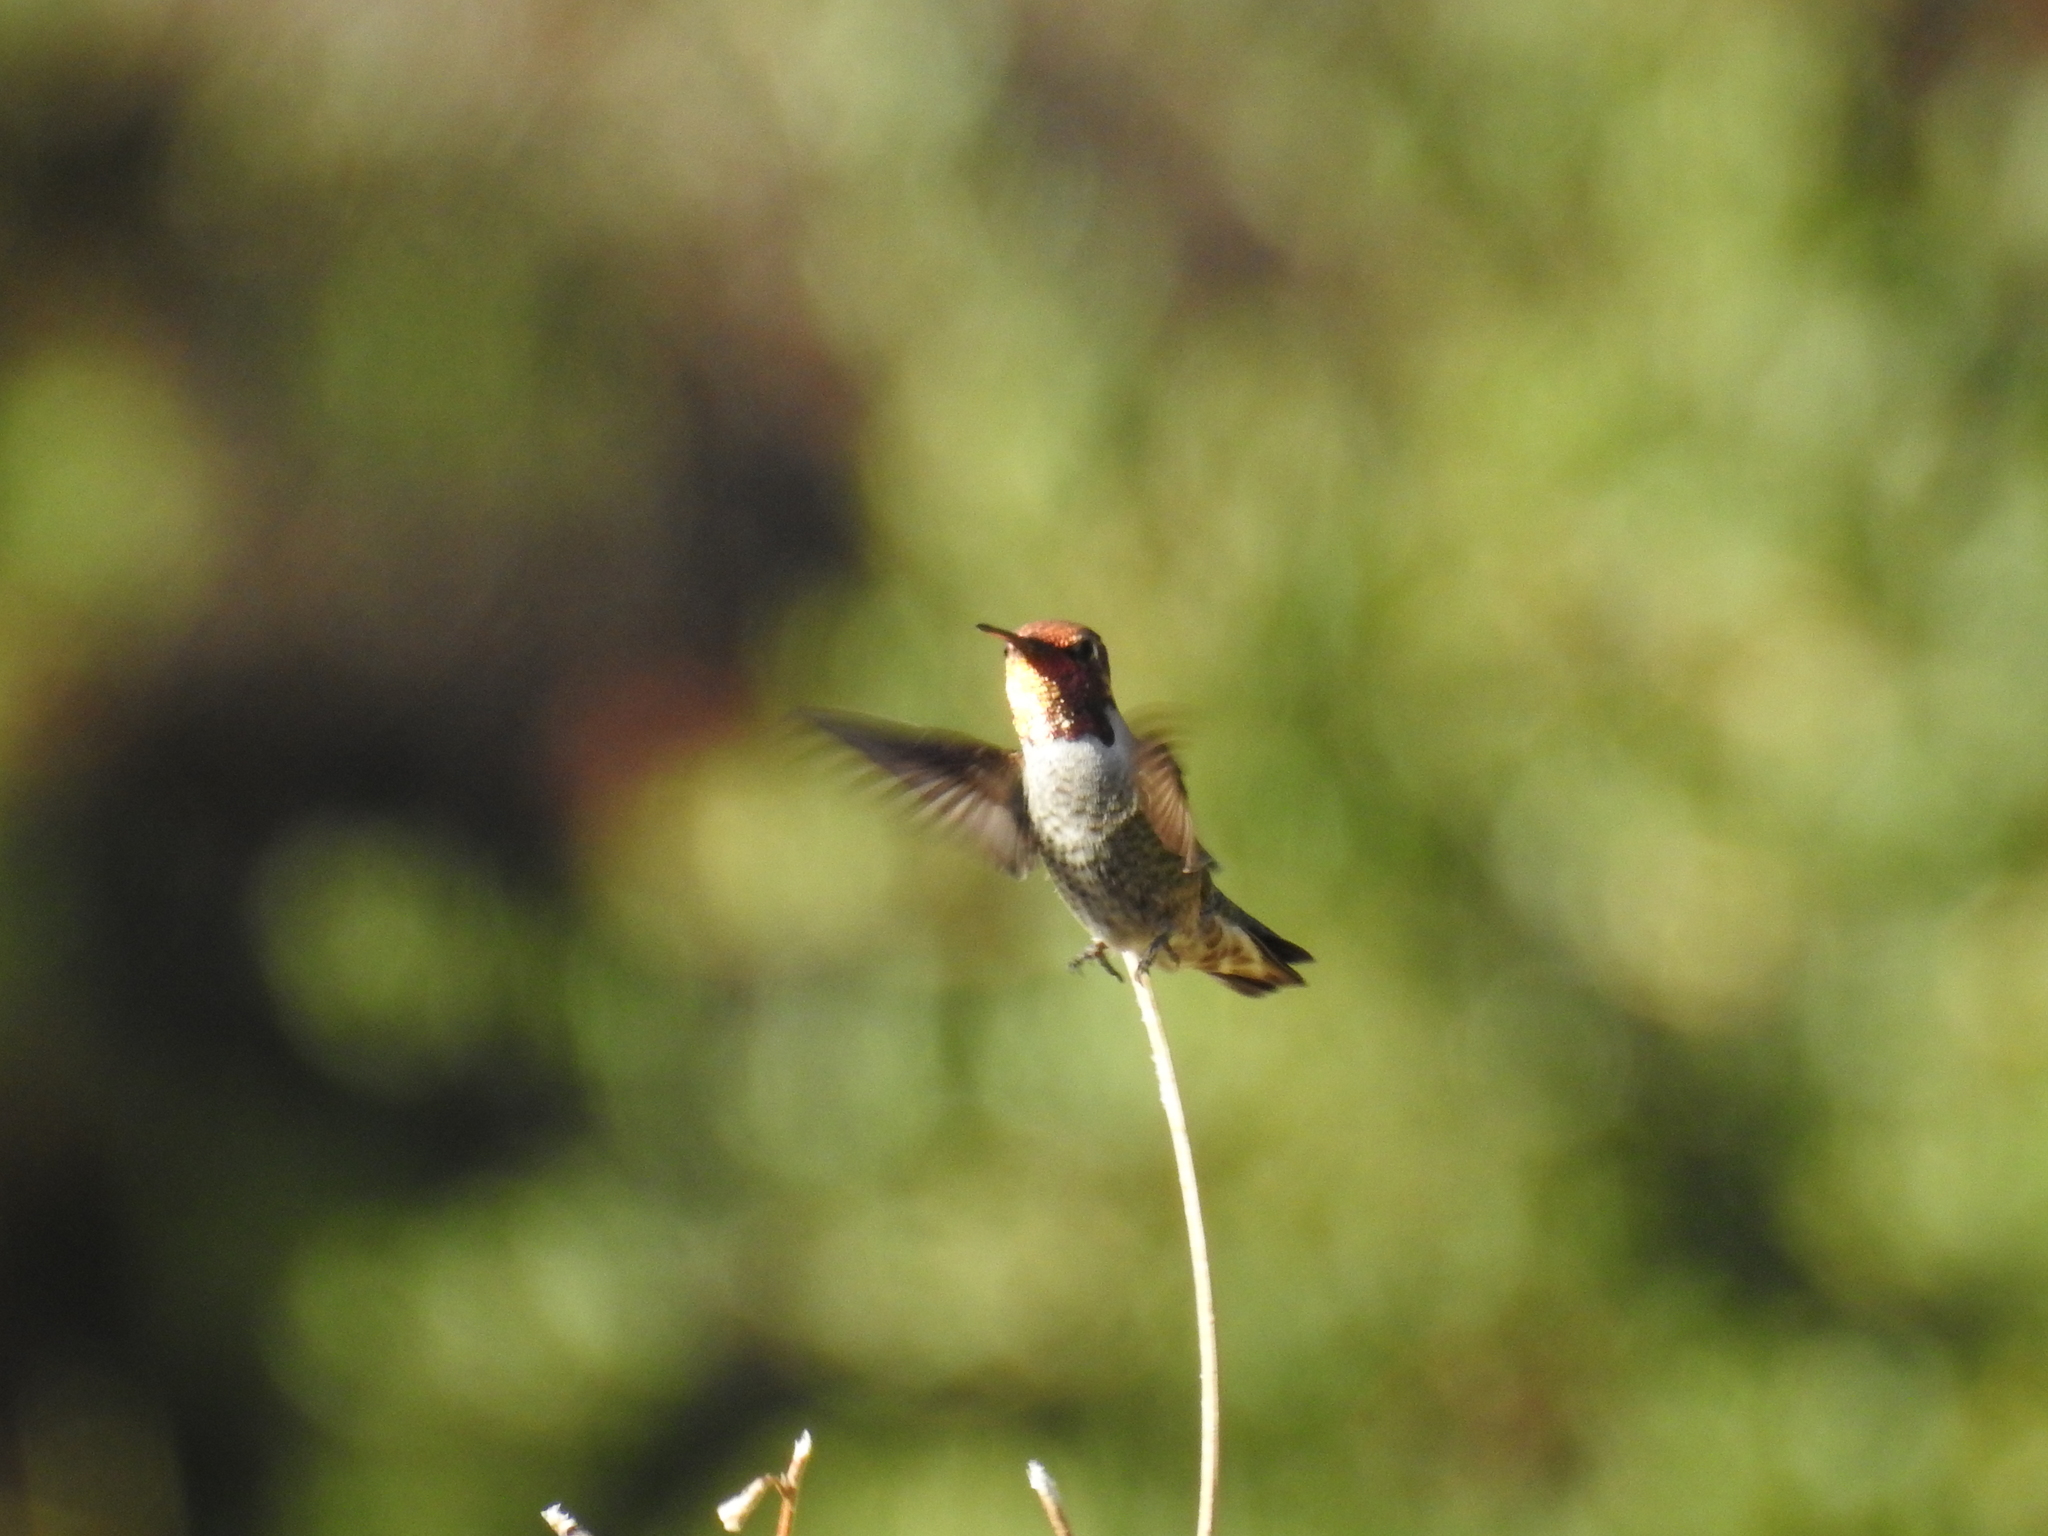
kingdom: Animalia
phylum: Chordata
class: Aves
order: Apodiformes
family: Trochilidae
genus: Calypte
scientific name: Calypte anna
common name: Anna's hummingbird
